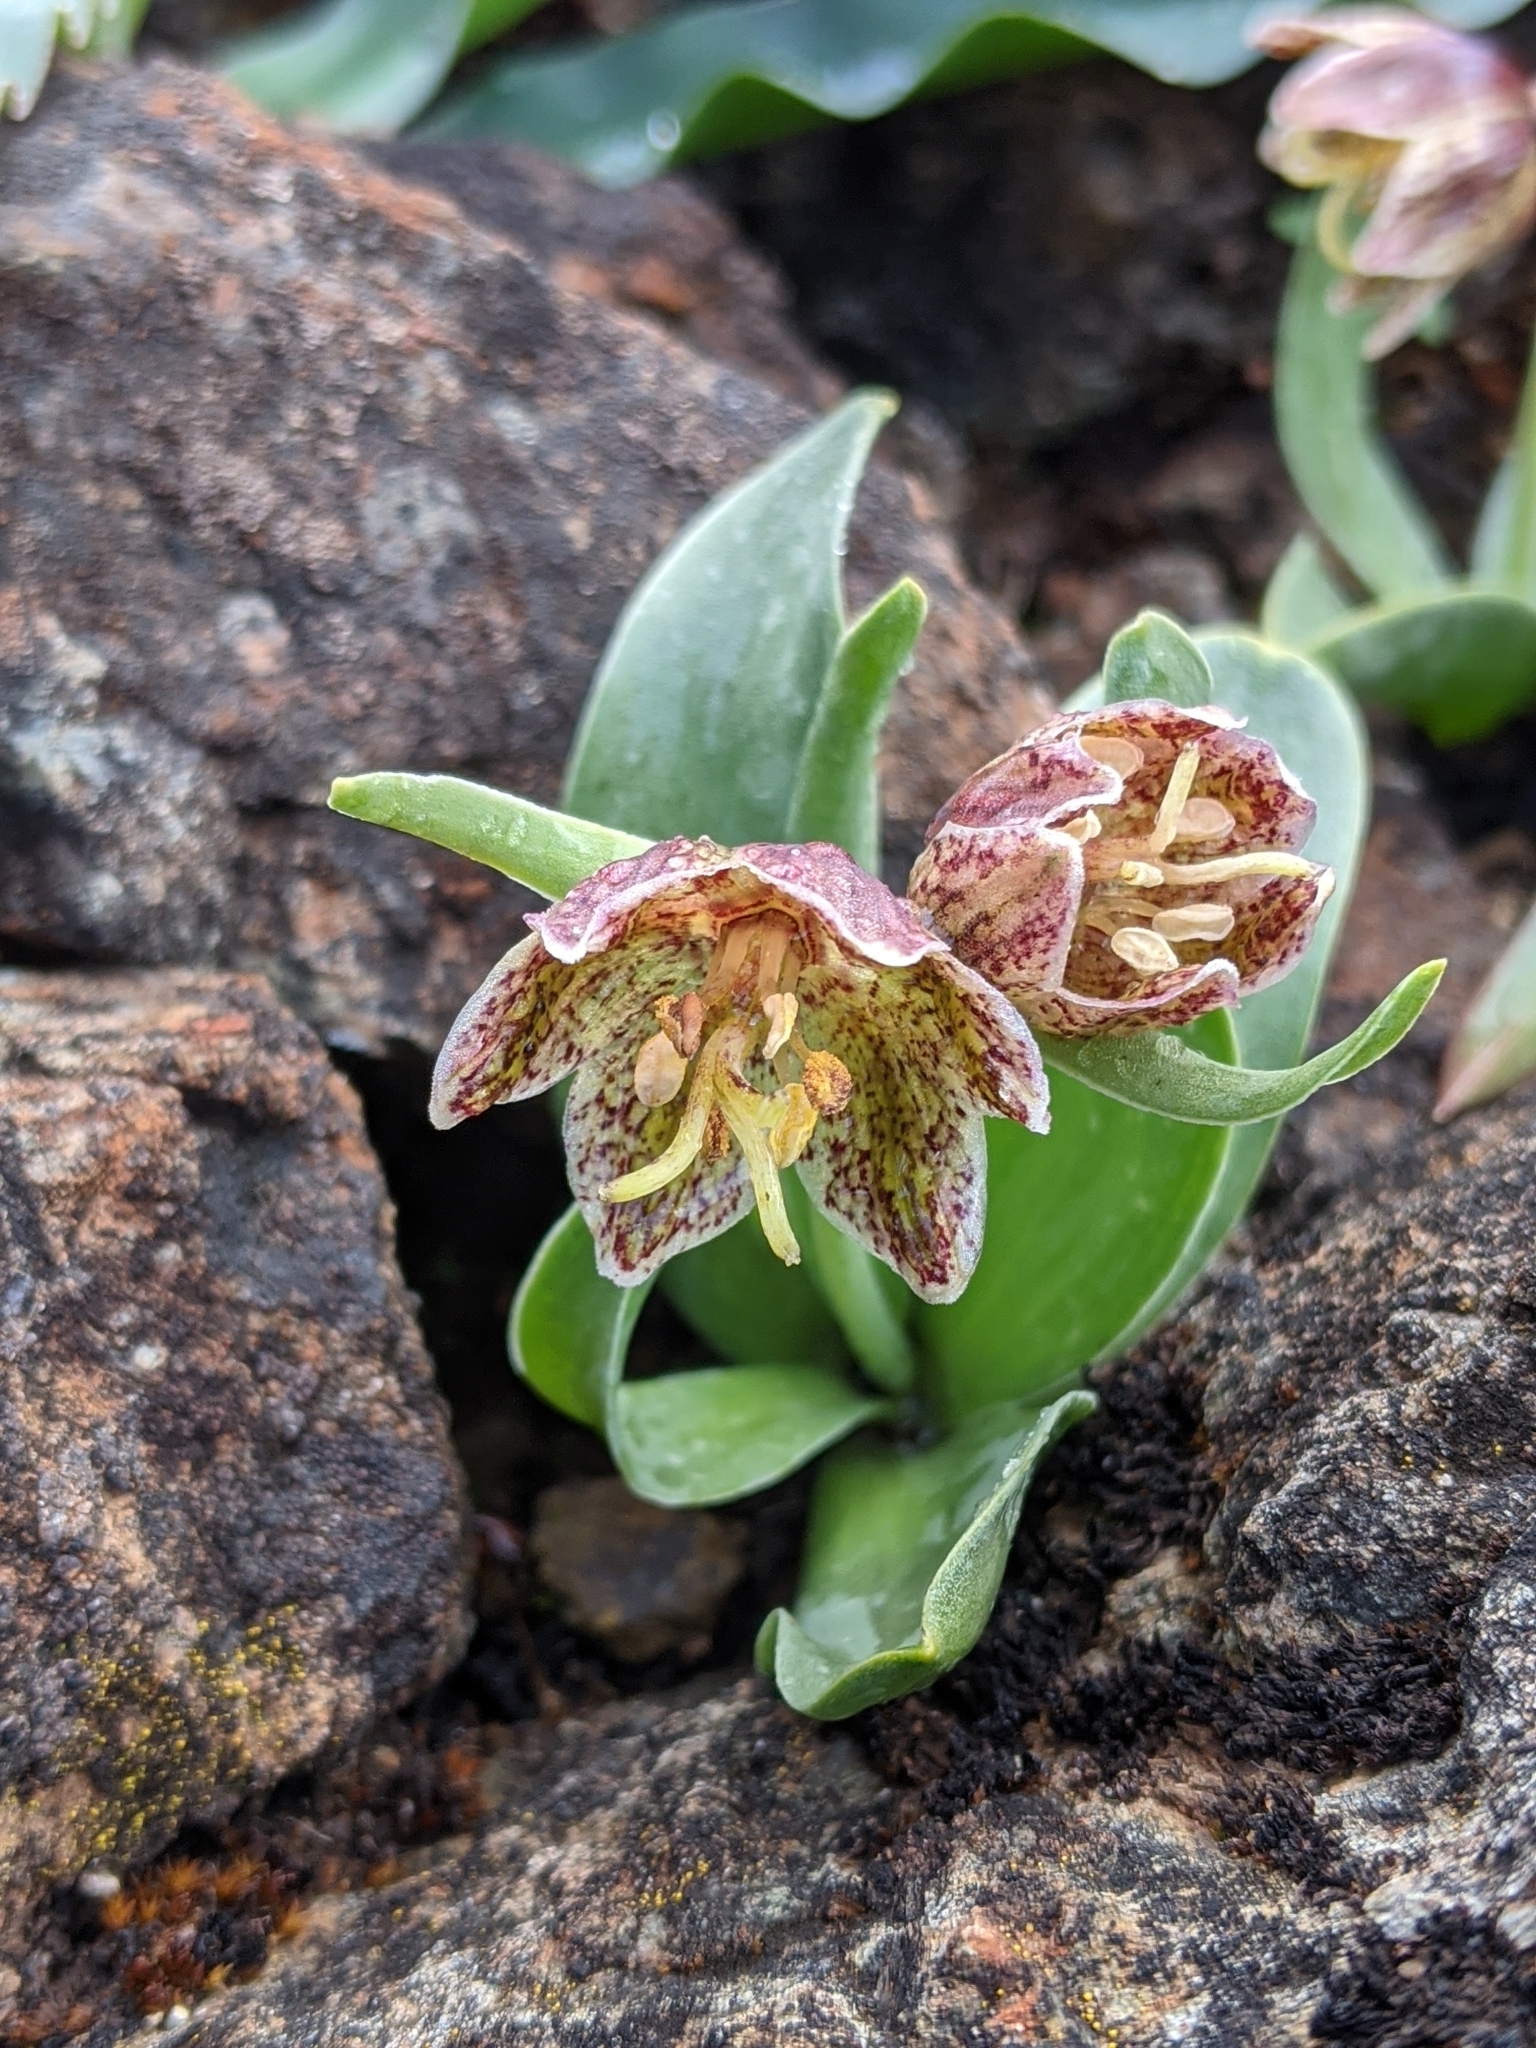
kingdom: Plantae
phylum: Tracheophyta
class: Liliopsida
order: Liliales
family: Liliaceae
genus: Fritillaria
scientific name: Fritillaria purdyi
